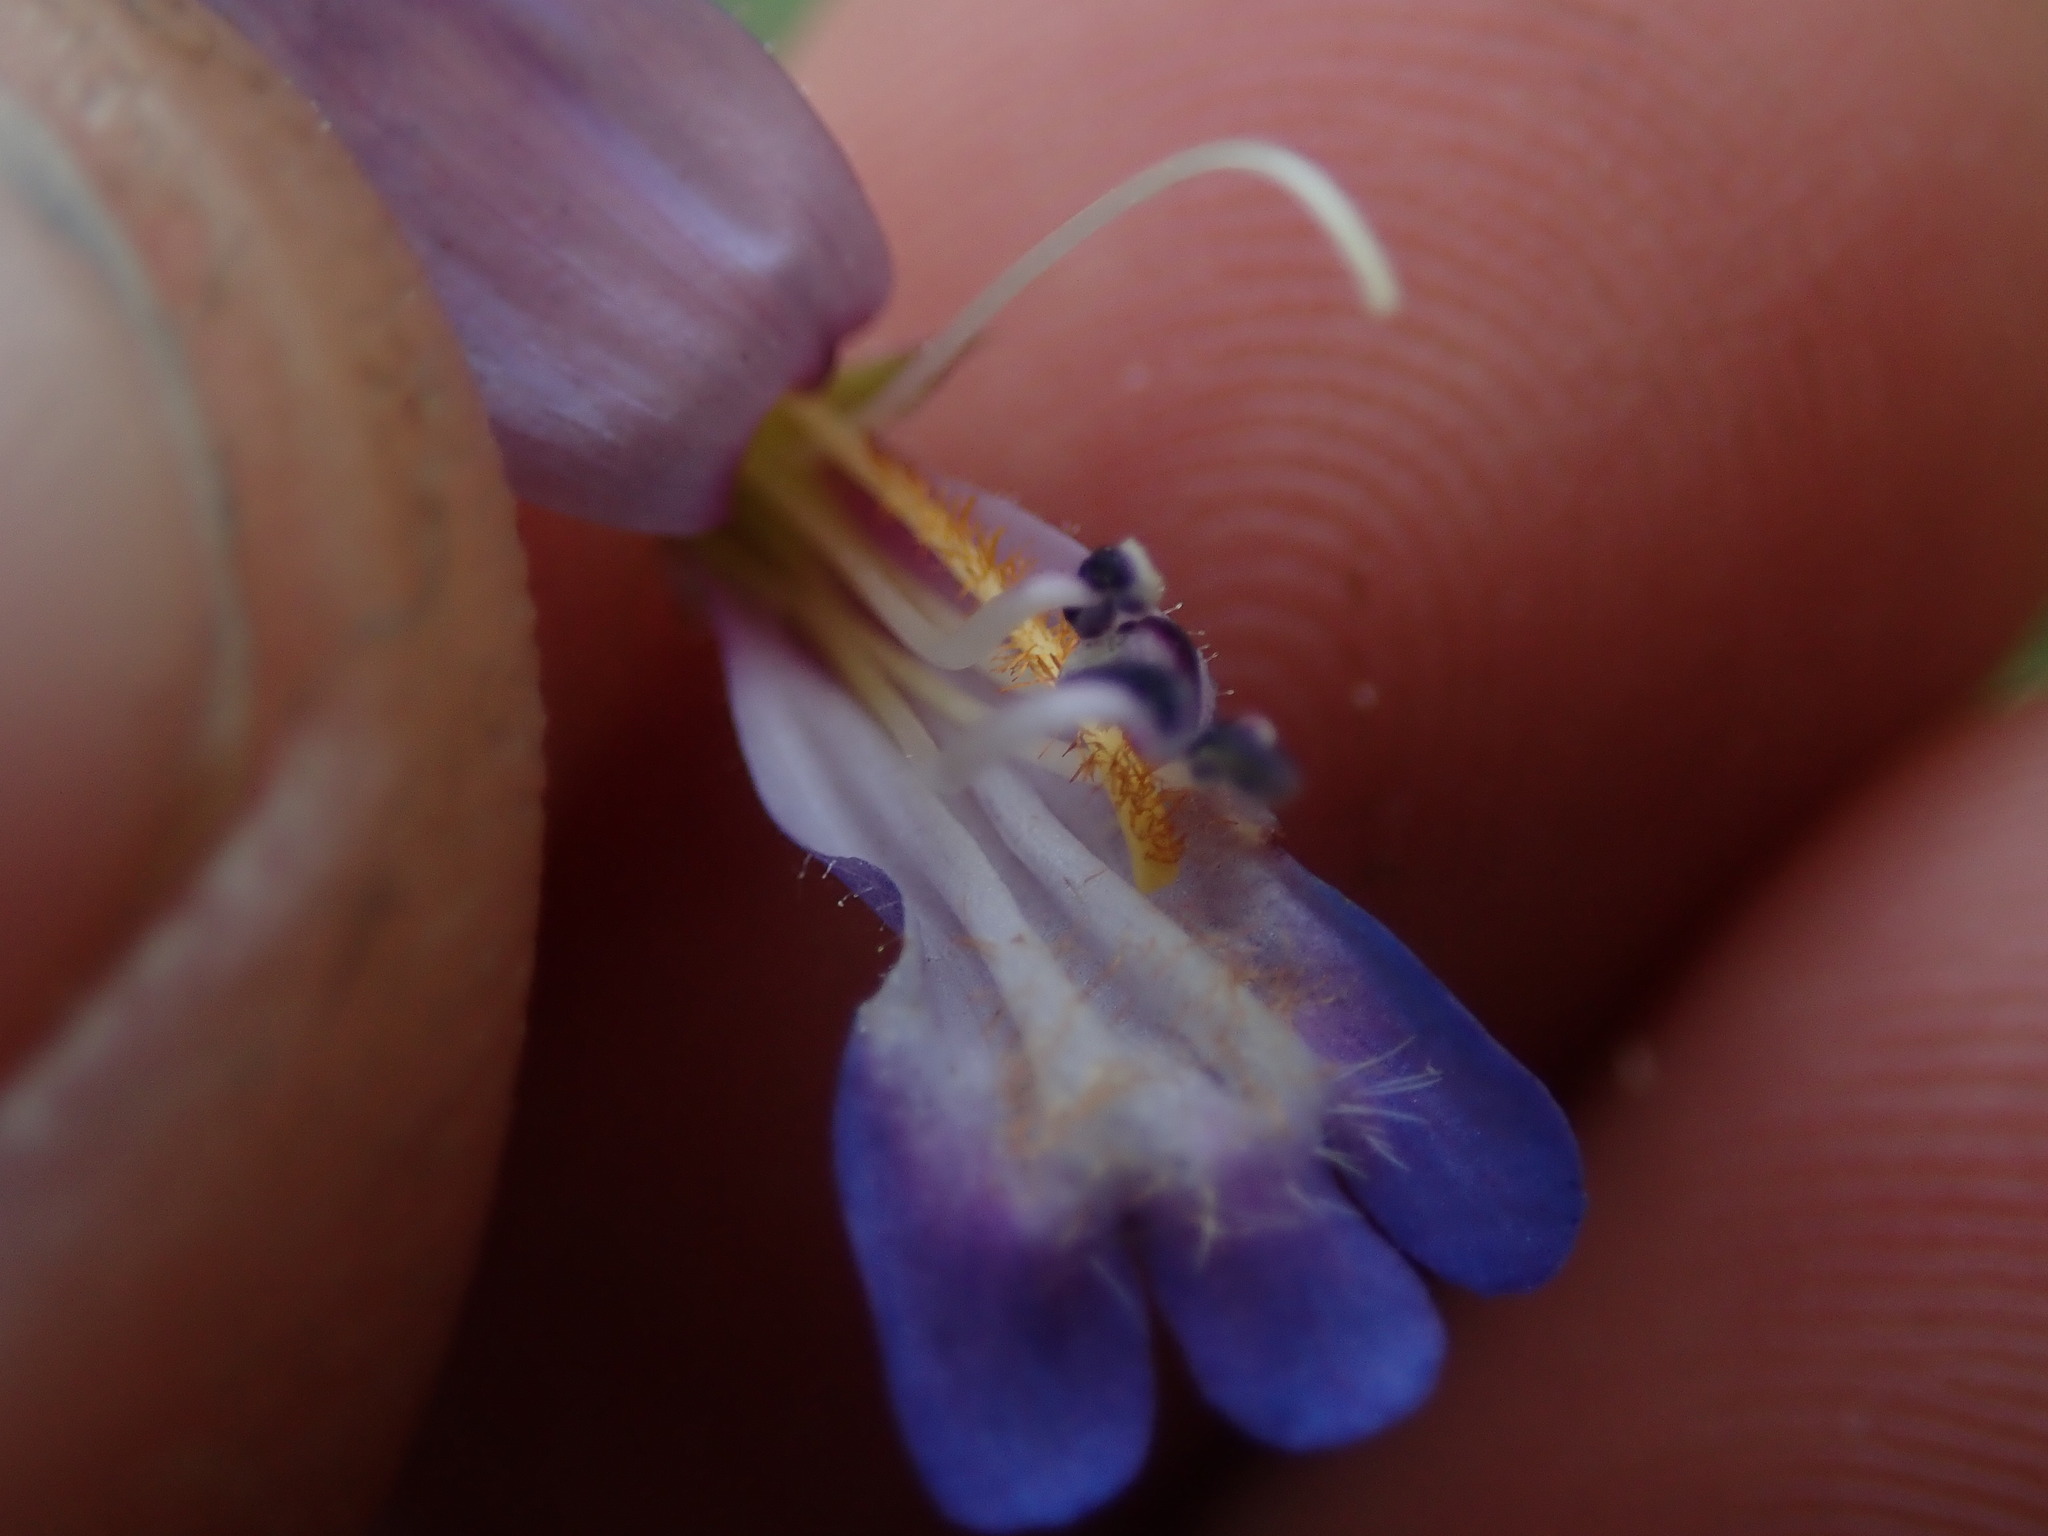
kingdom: Plantae
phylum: Tracheophyta
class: Magnoliopsida
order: Lamiales
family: Plantaginaceae
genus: Penstemon
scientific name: Penstemon caespitosus
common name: Mat penstemon
